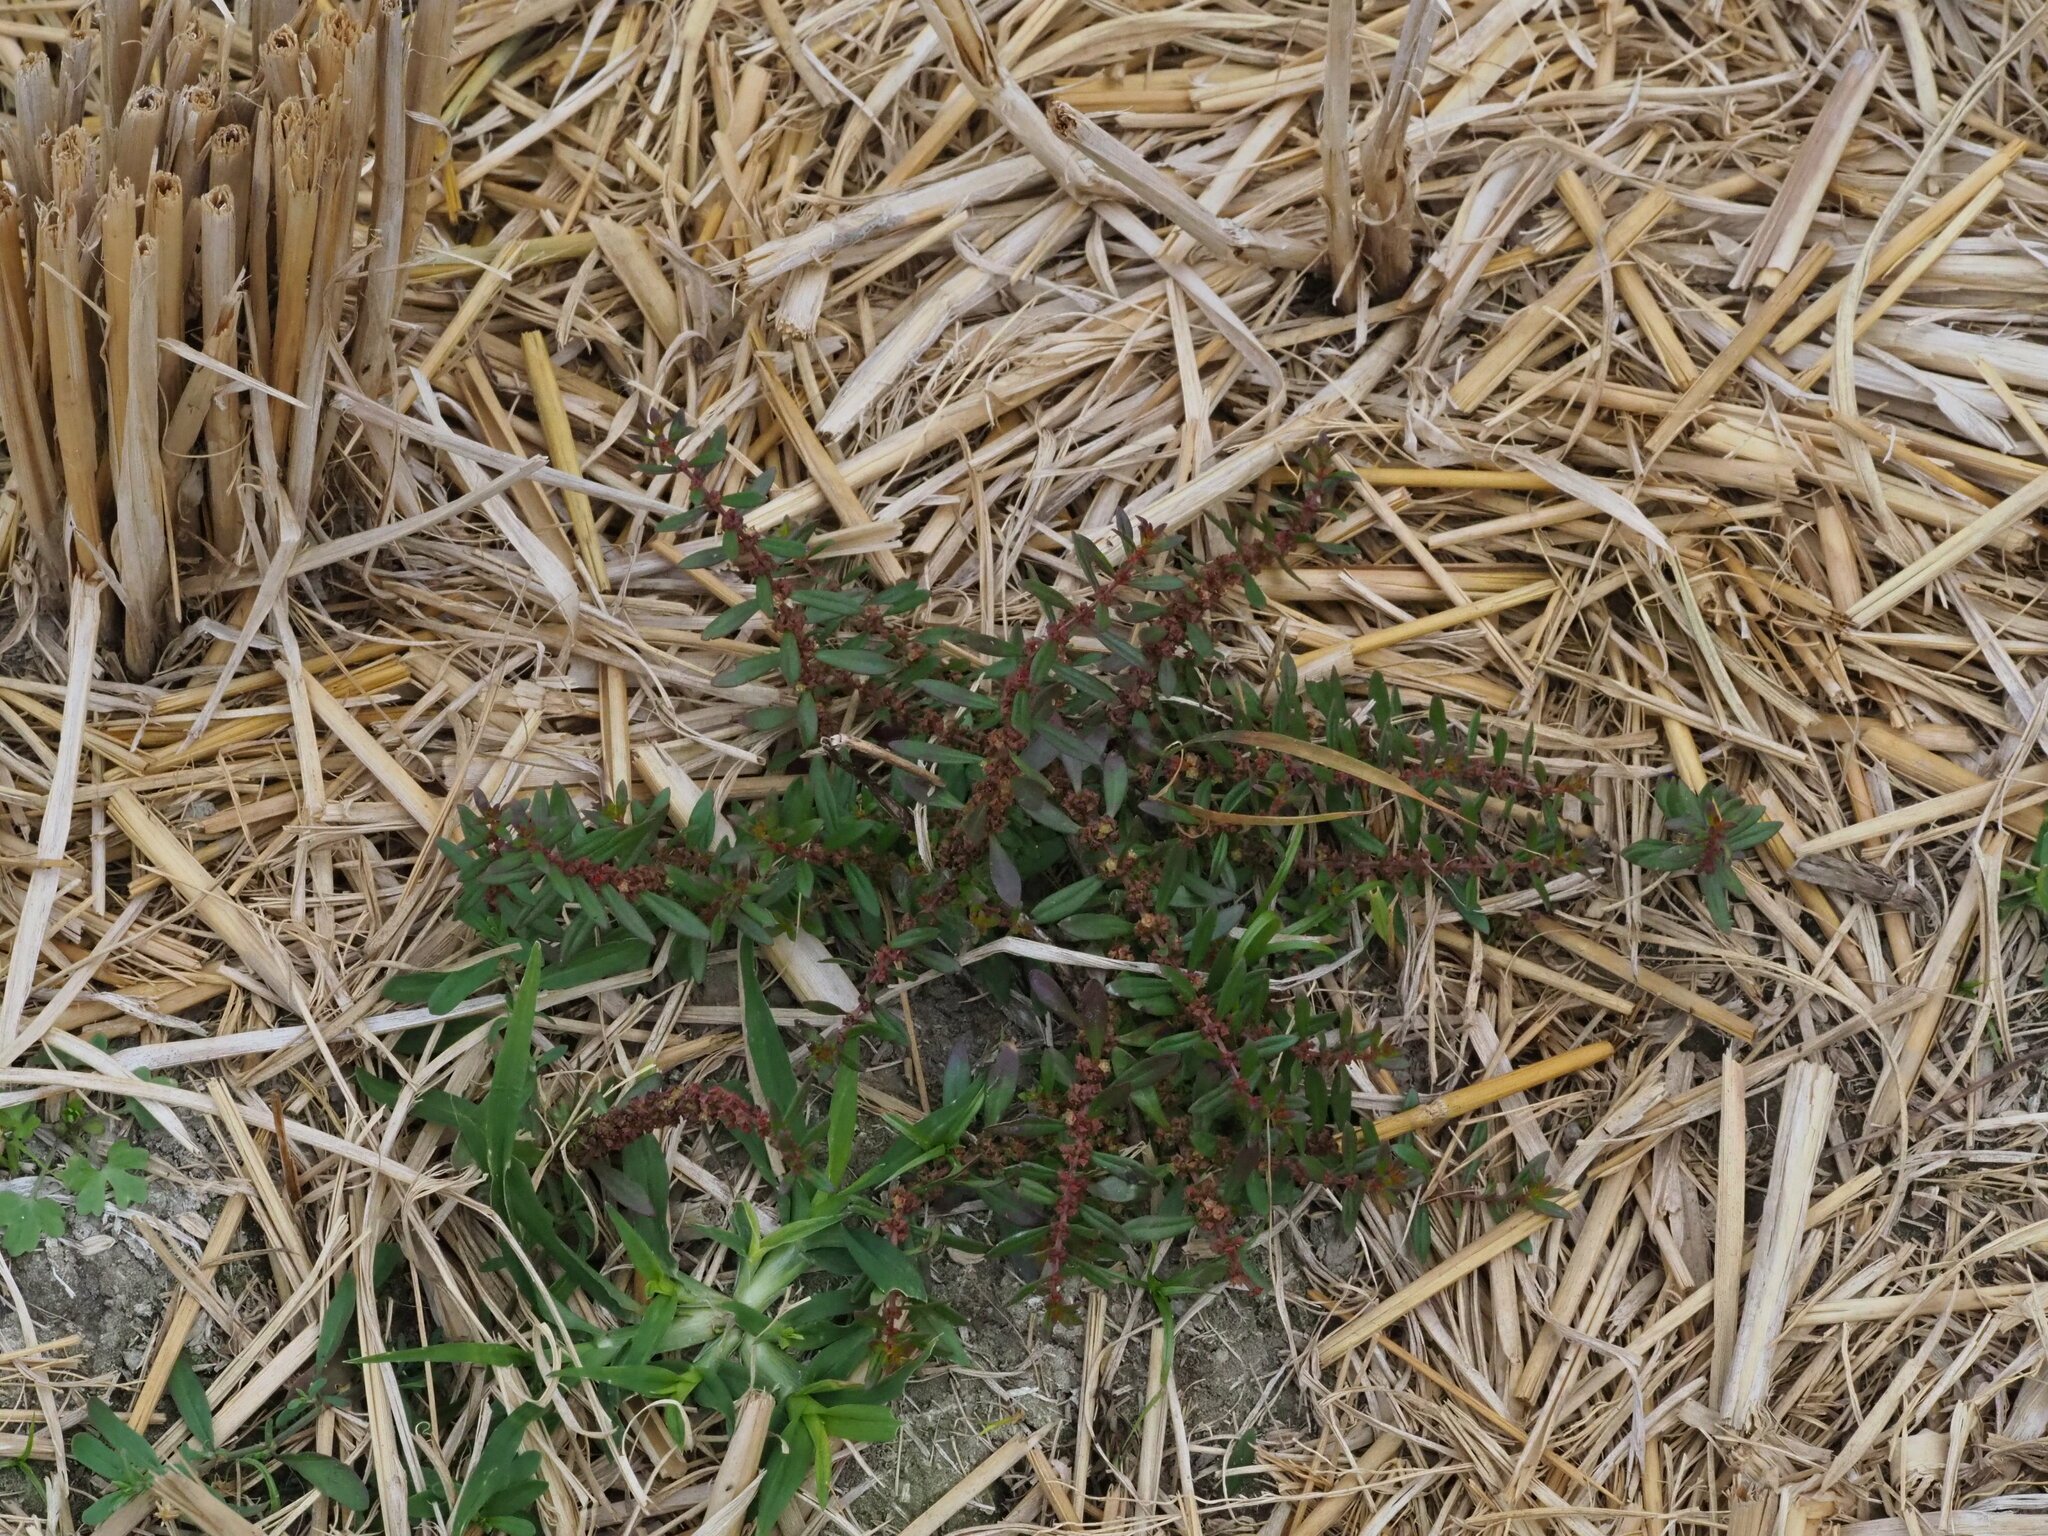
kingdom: Plantae
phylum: Tracheophyta
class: Magnoliopsida
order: Myrtales
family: Lythraceae
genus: Ammannia
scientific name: Ammannia baccifera
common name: Blistering ammania
